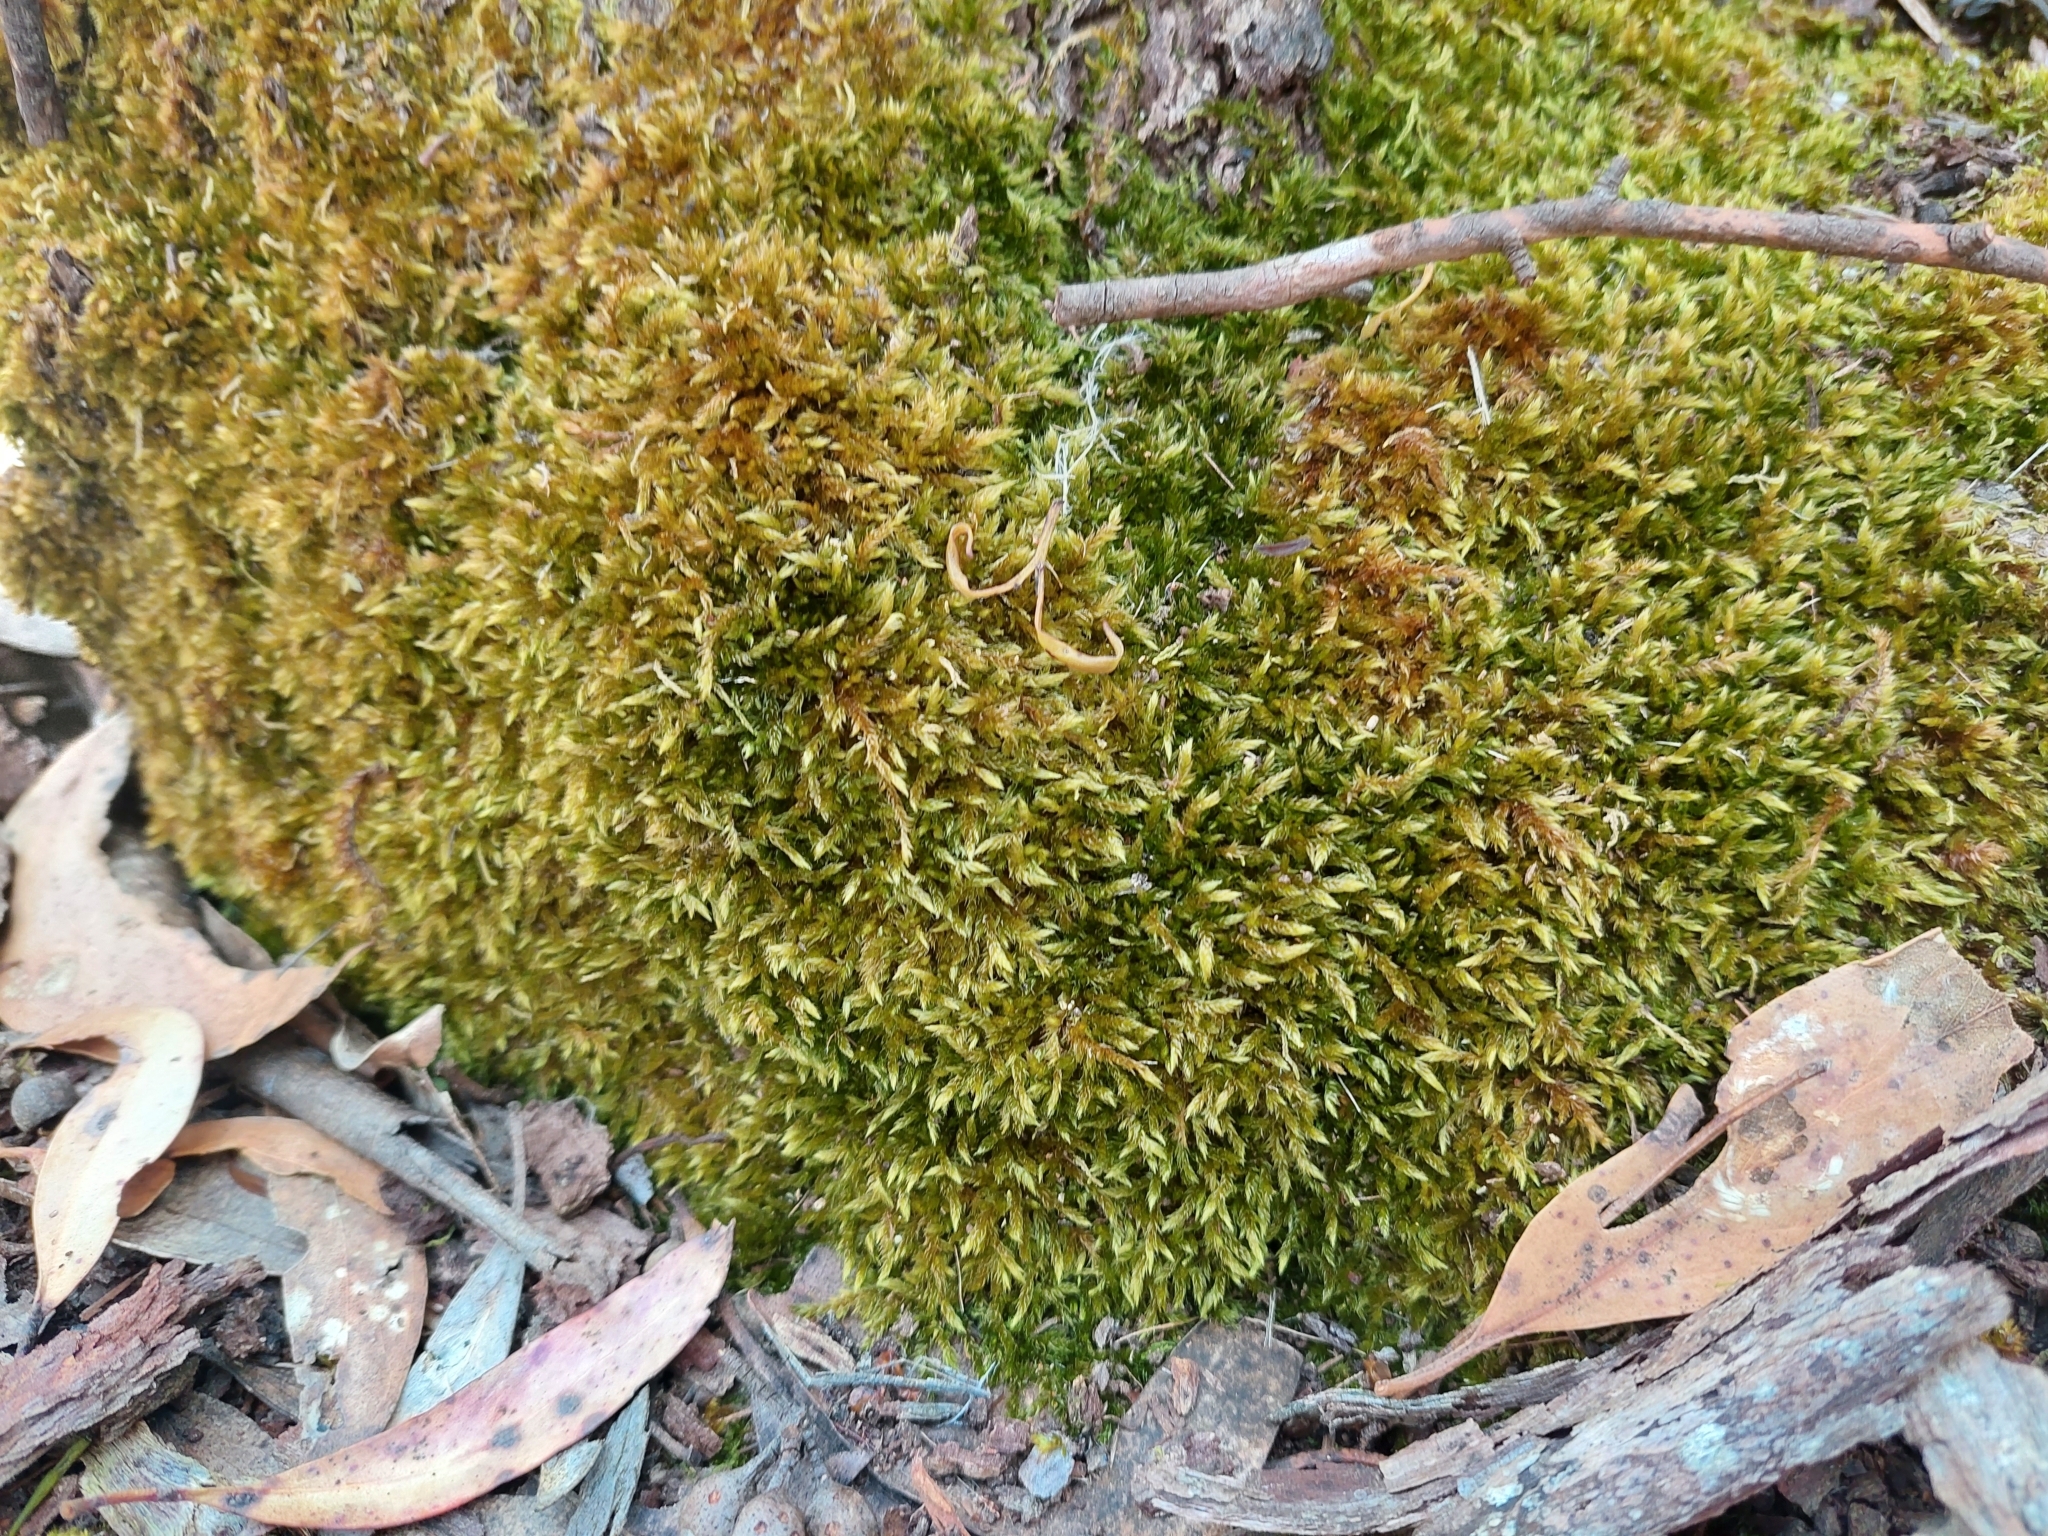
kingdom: Plantae
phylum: Bryophyta
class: Bryopsida
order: Hypnales
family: Sematophyllaceae
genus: Sematophyllum
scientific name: Sematophyllum homomallum
